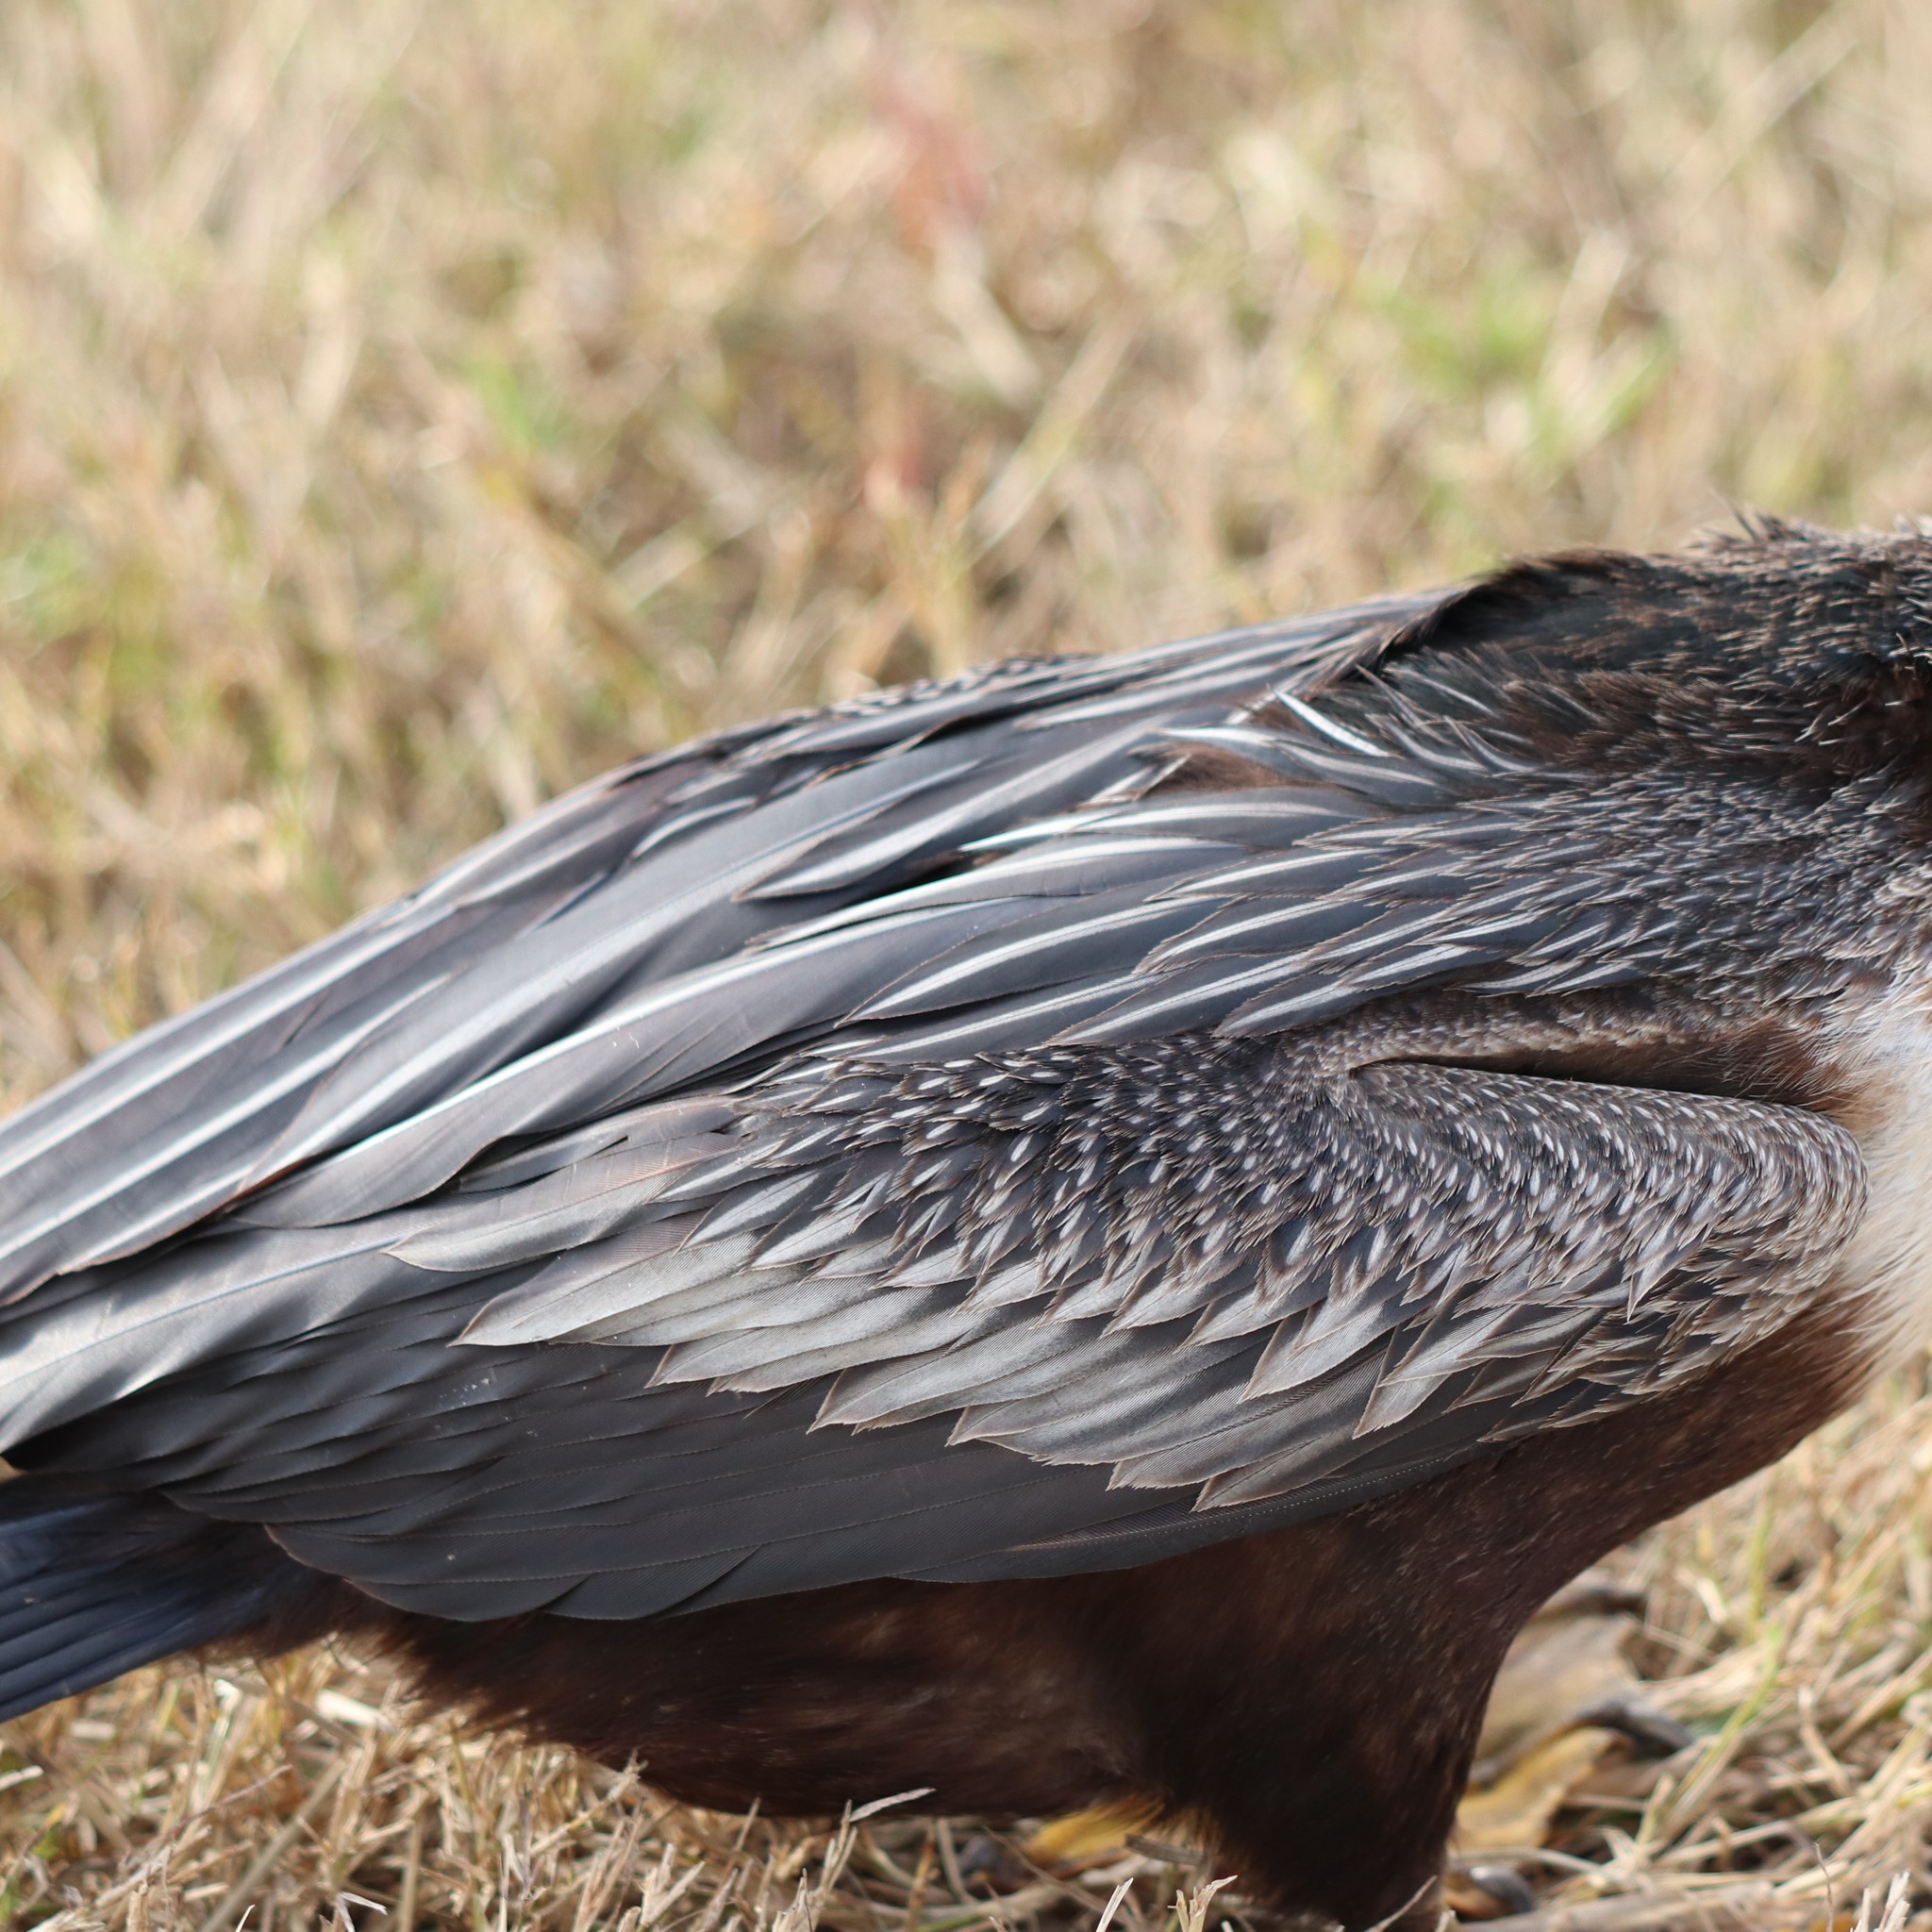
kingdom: Animalia
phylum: Chordata
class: Aves
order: Suliformes
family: Anhingidae
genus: Anhinga
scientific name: Anhinga anhinga
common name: Anhinga
